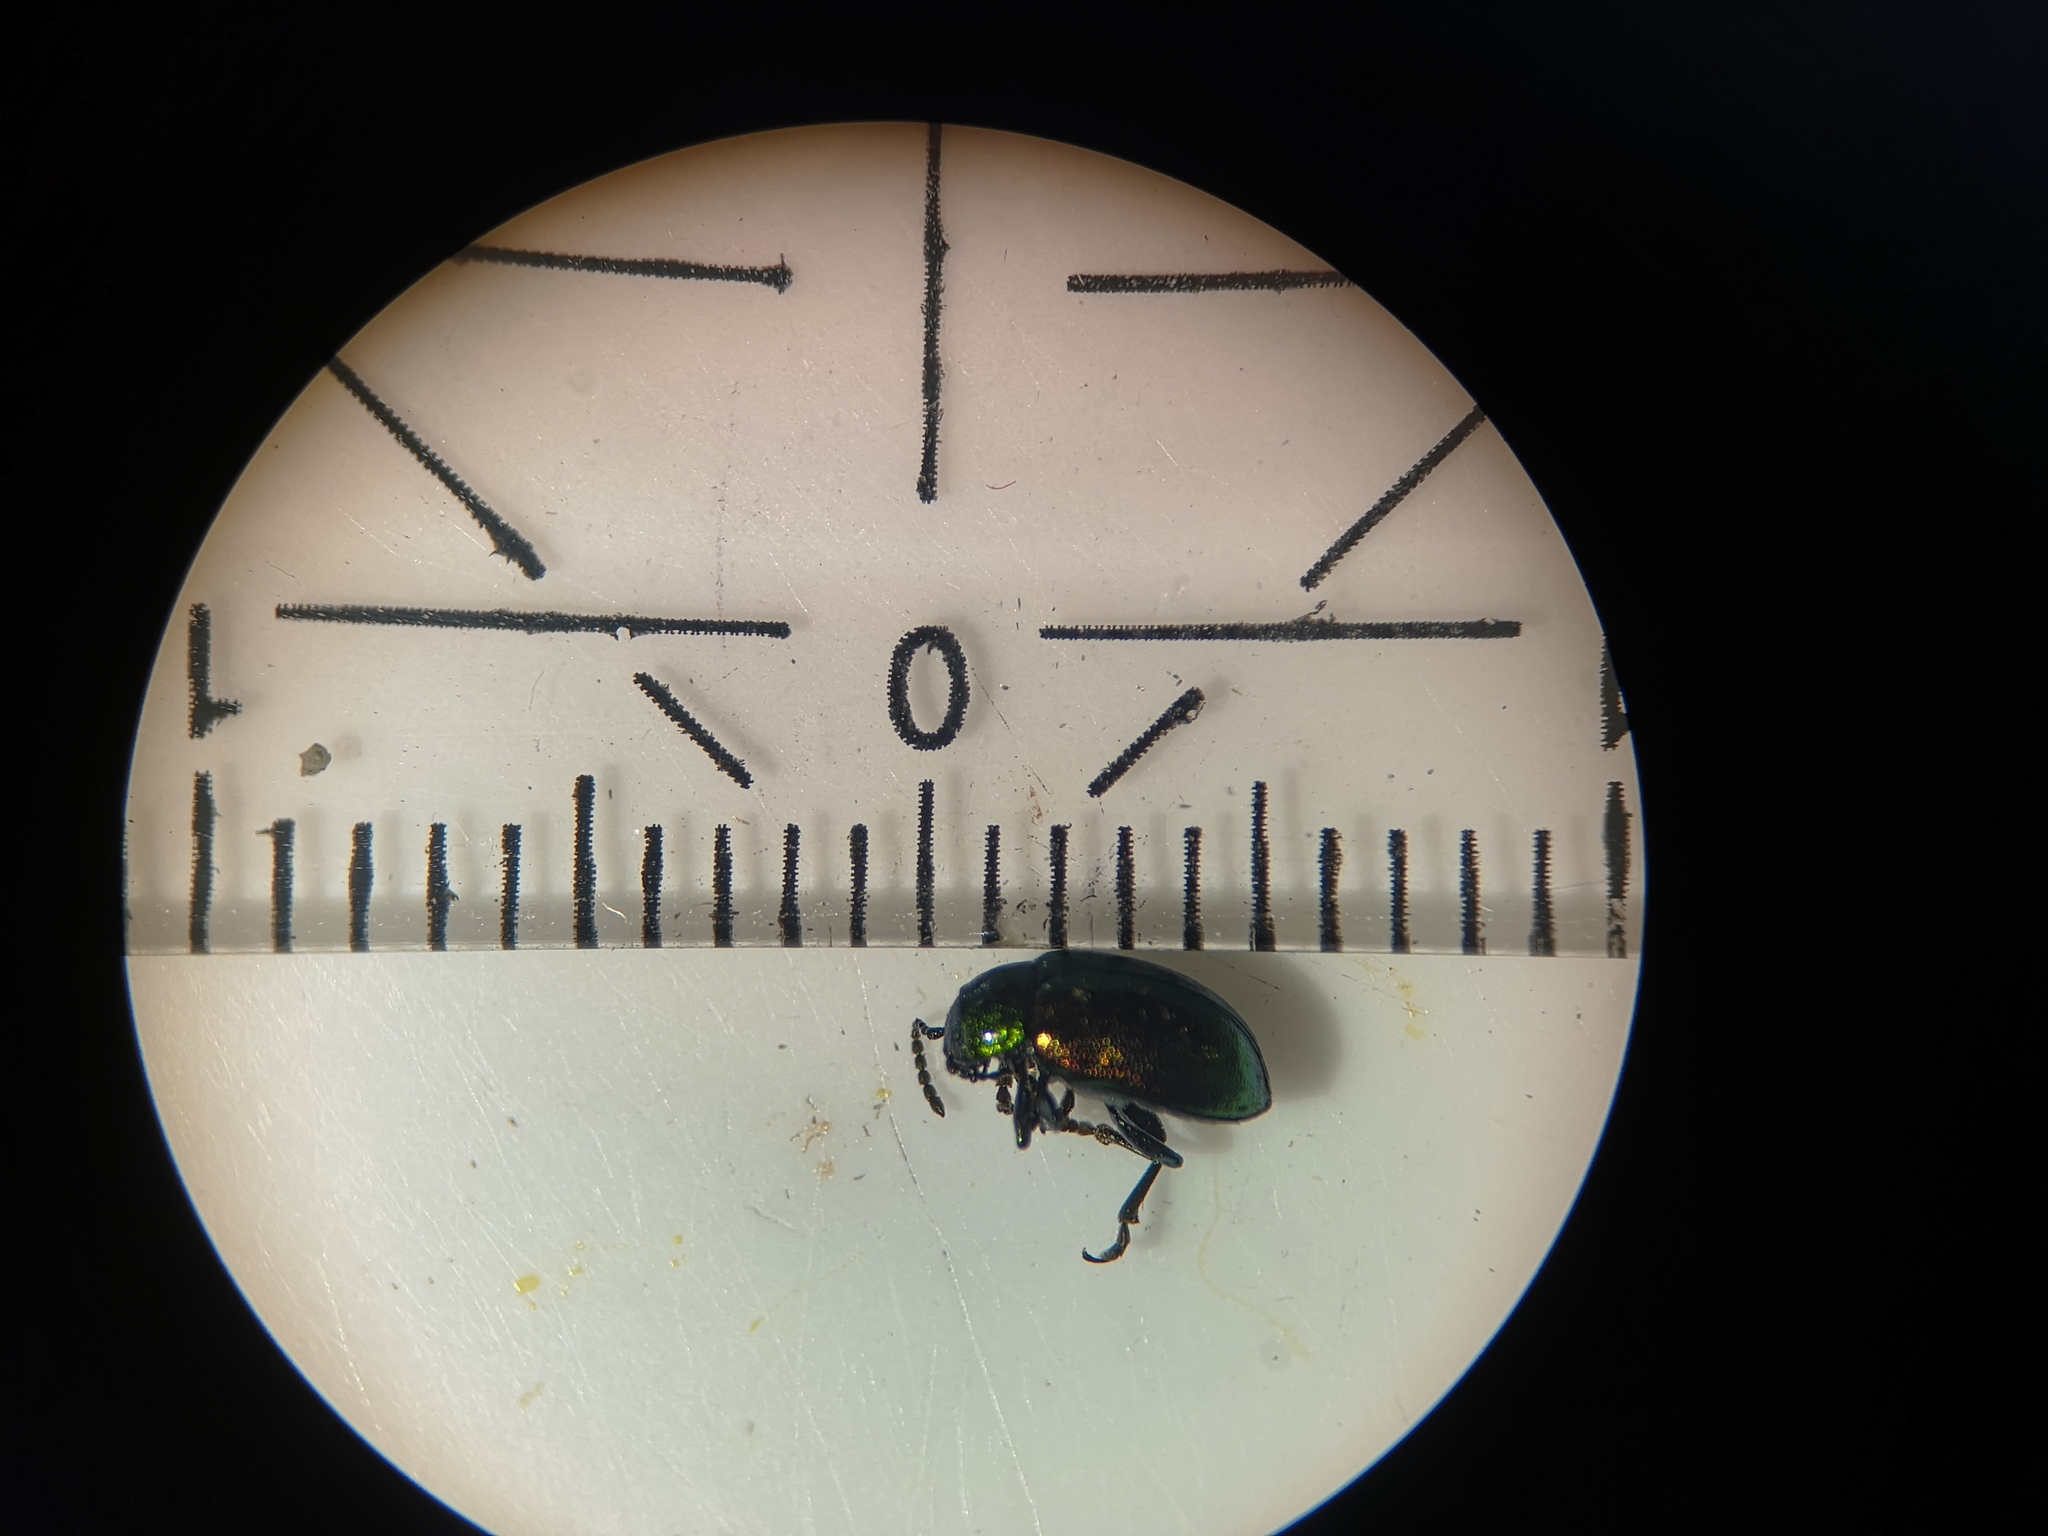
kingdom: Animalia
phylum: Arthropoda
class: Insecta
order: Coleoptera
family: Chrysomelidae
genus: Gastrophysa
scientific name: Gastrophysa viridula
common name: Green dock beetle
